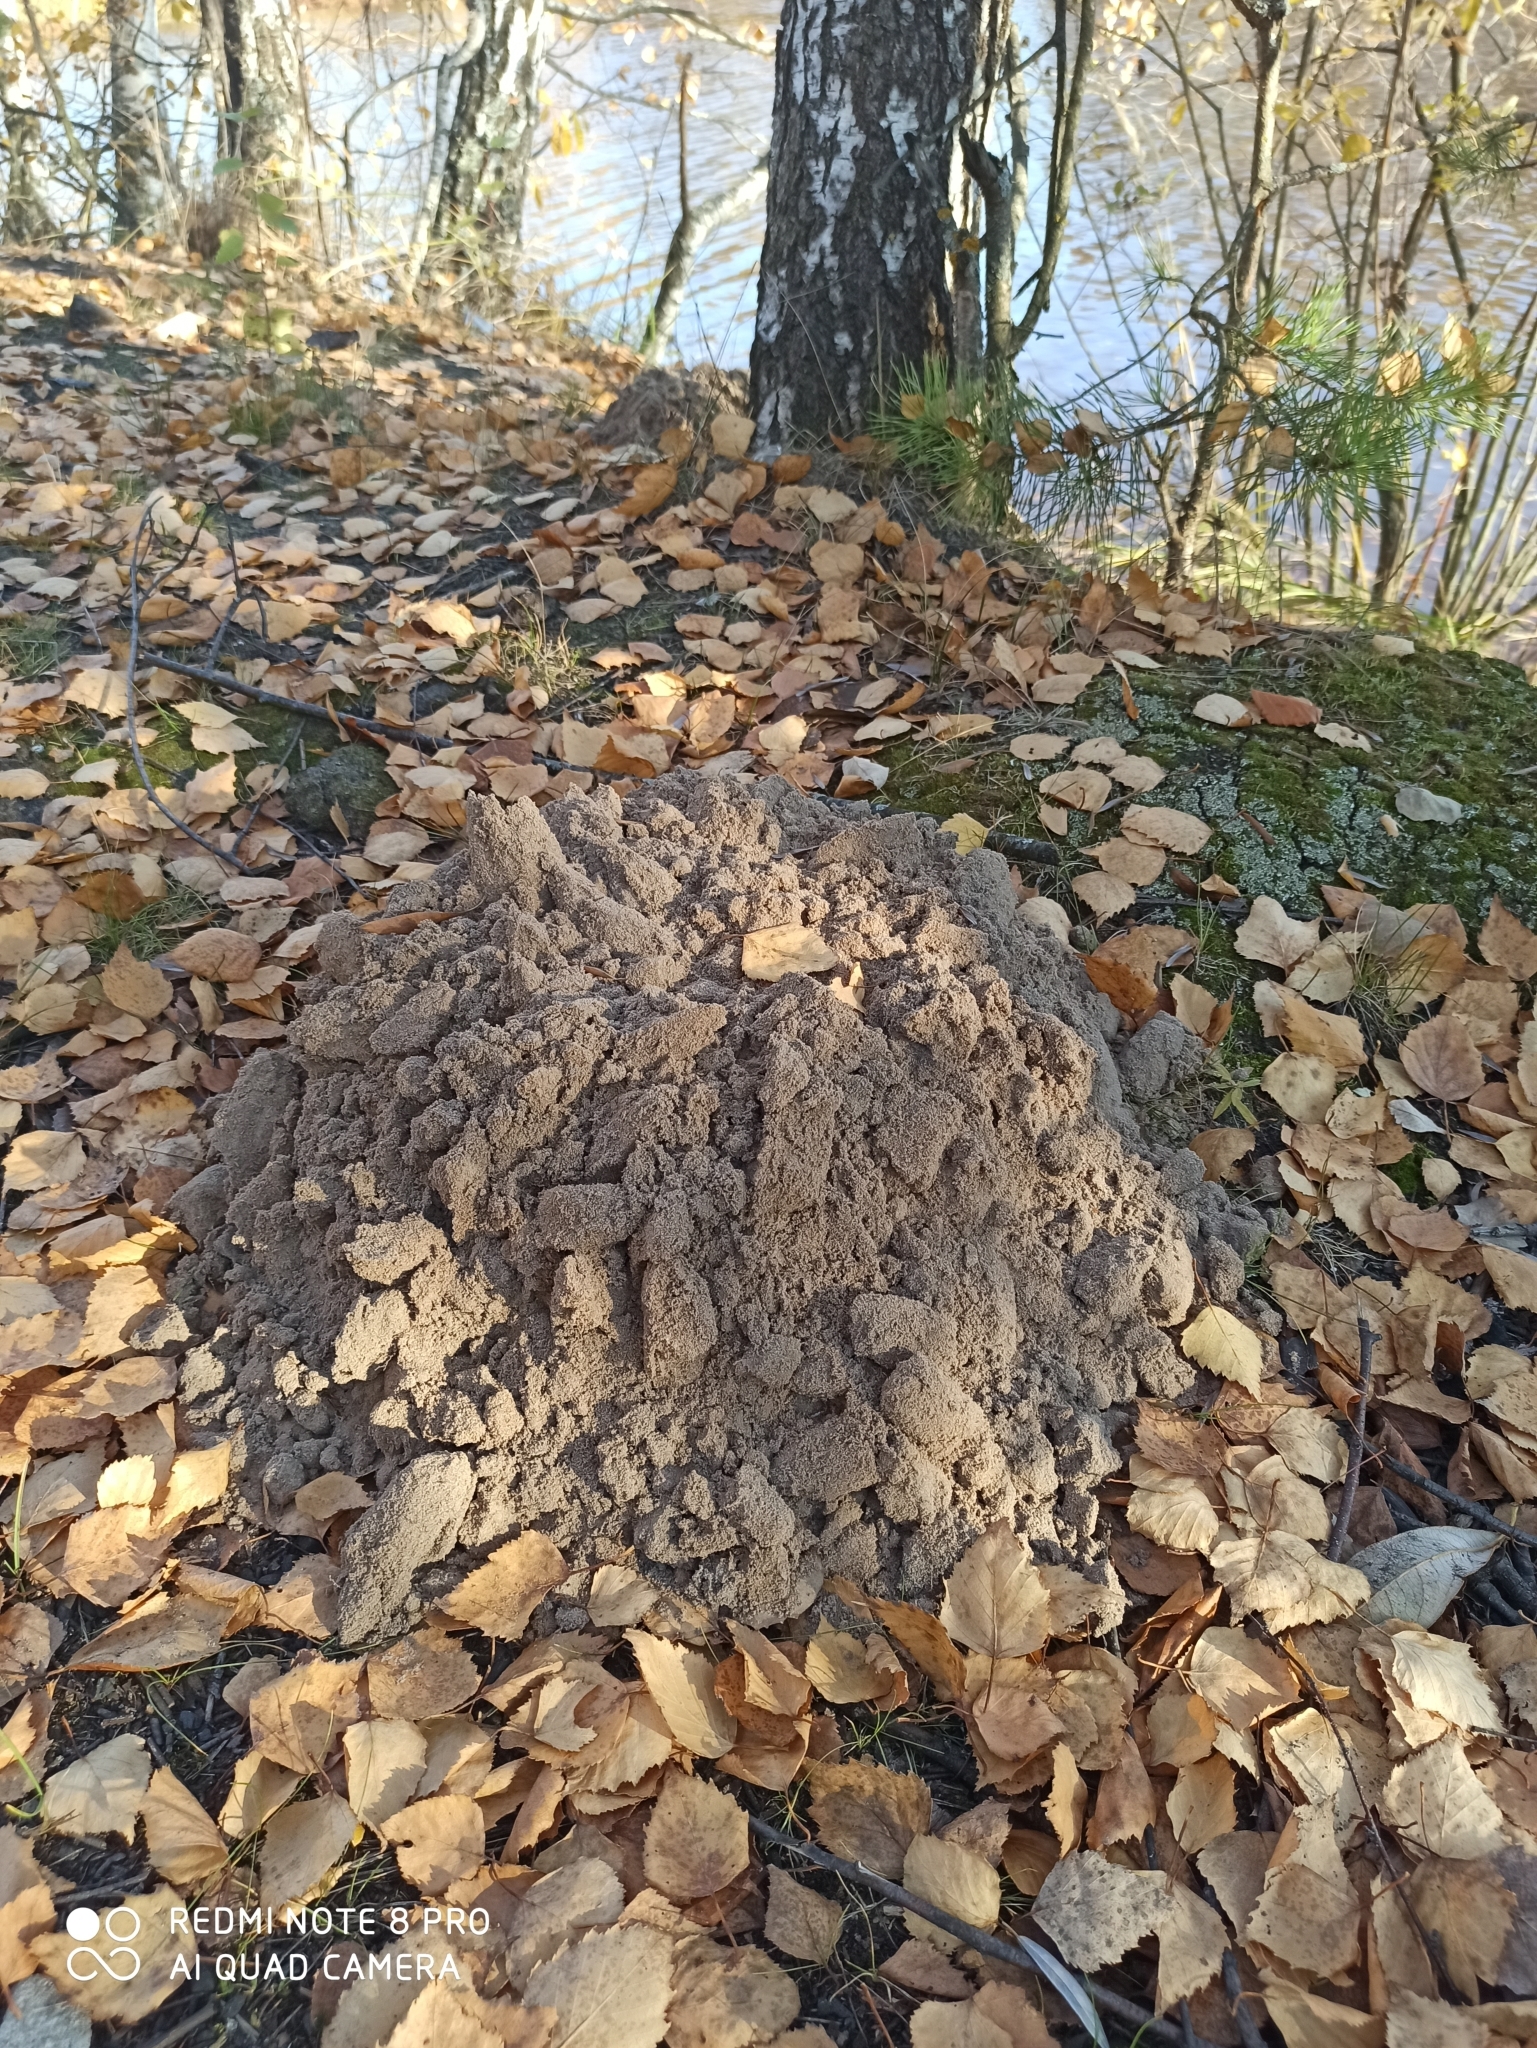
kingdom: Animalia
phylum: Chordata
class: Mammalia
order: Soricomorpha
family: Talpidae
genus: Talpa
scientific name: Talpa europaea
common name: European mole
